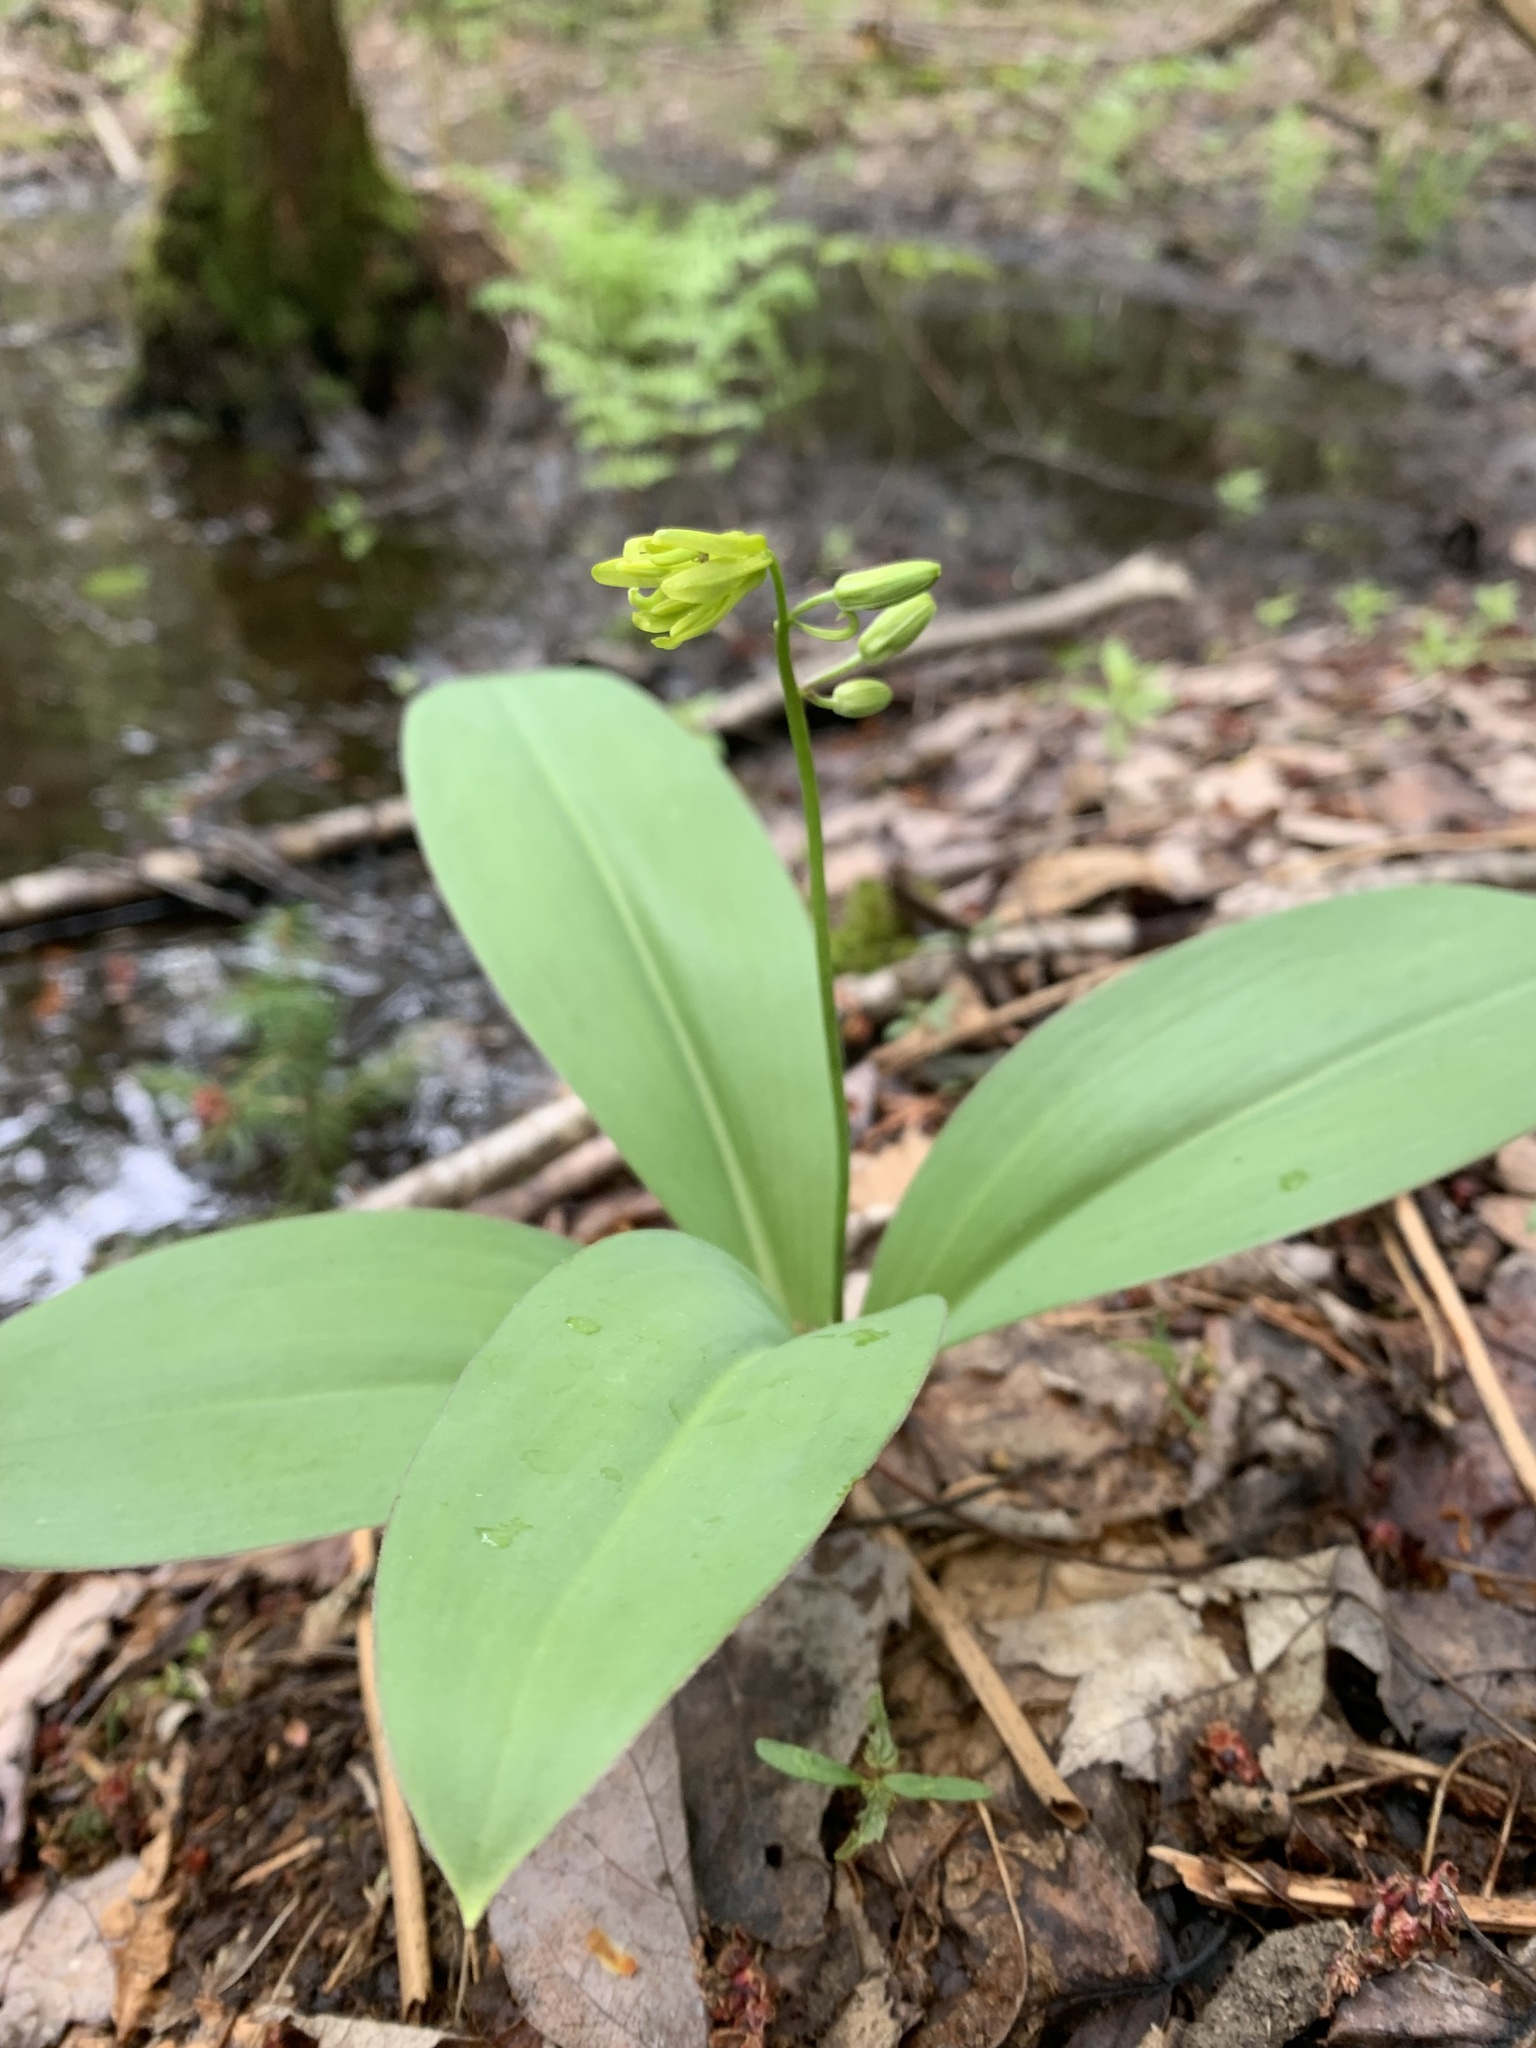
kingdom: Plantae
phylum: Tracheophyta
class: Liliopsida
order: Liliales
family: Liliaceae
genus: Clintonia
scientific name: Clintonia borealis
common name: Yellow clintonia
